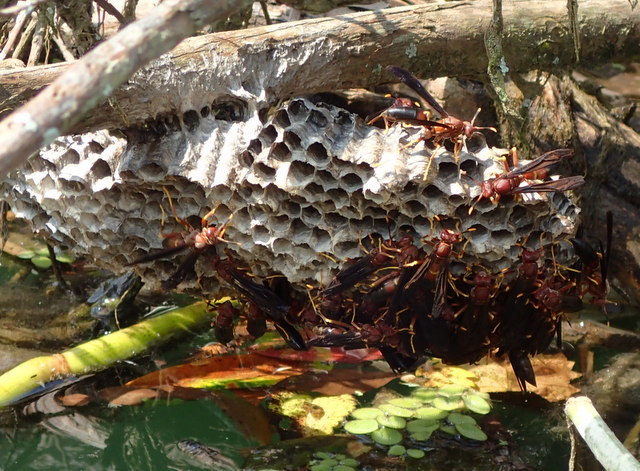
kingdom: Animalia
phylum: Arthropoda
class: Insecta
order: Hymenoptera
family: Eumenidae
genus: Polistes
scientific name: Polistes annularis
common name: Ringed paper wasp
